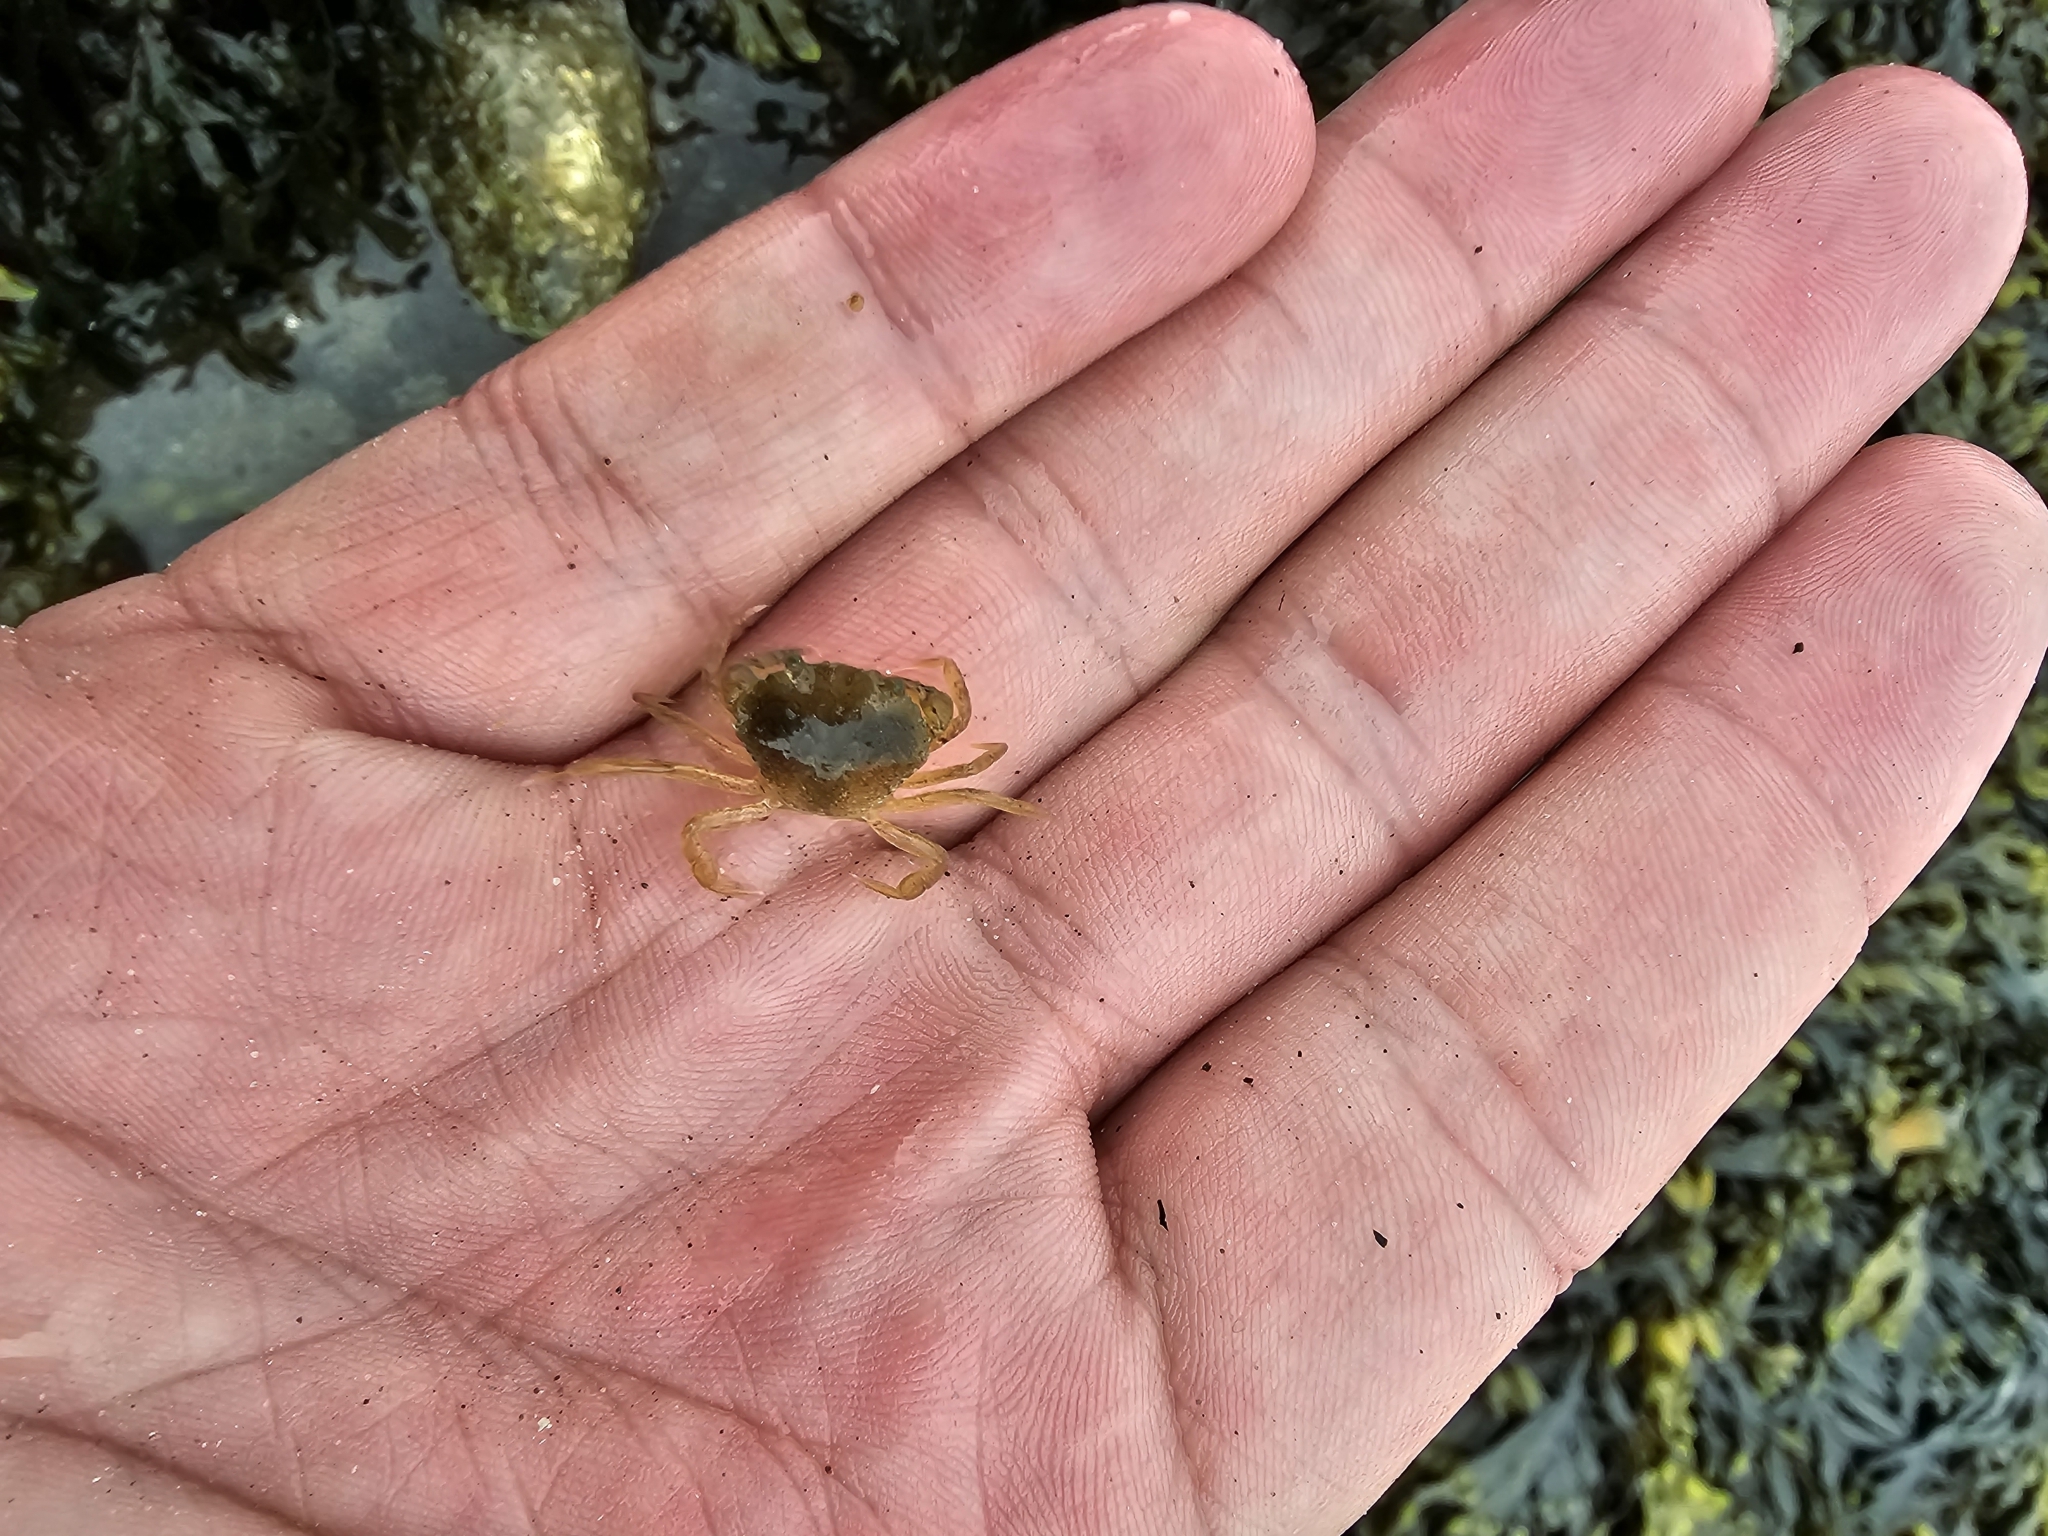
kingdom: Animalia
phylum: Arthropoda
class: Malacostraca
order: Decapoda
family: Carcinidae
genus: Carcinus
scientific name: Carcinus maenas
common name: European green crab
